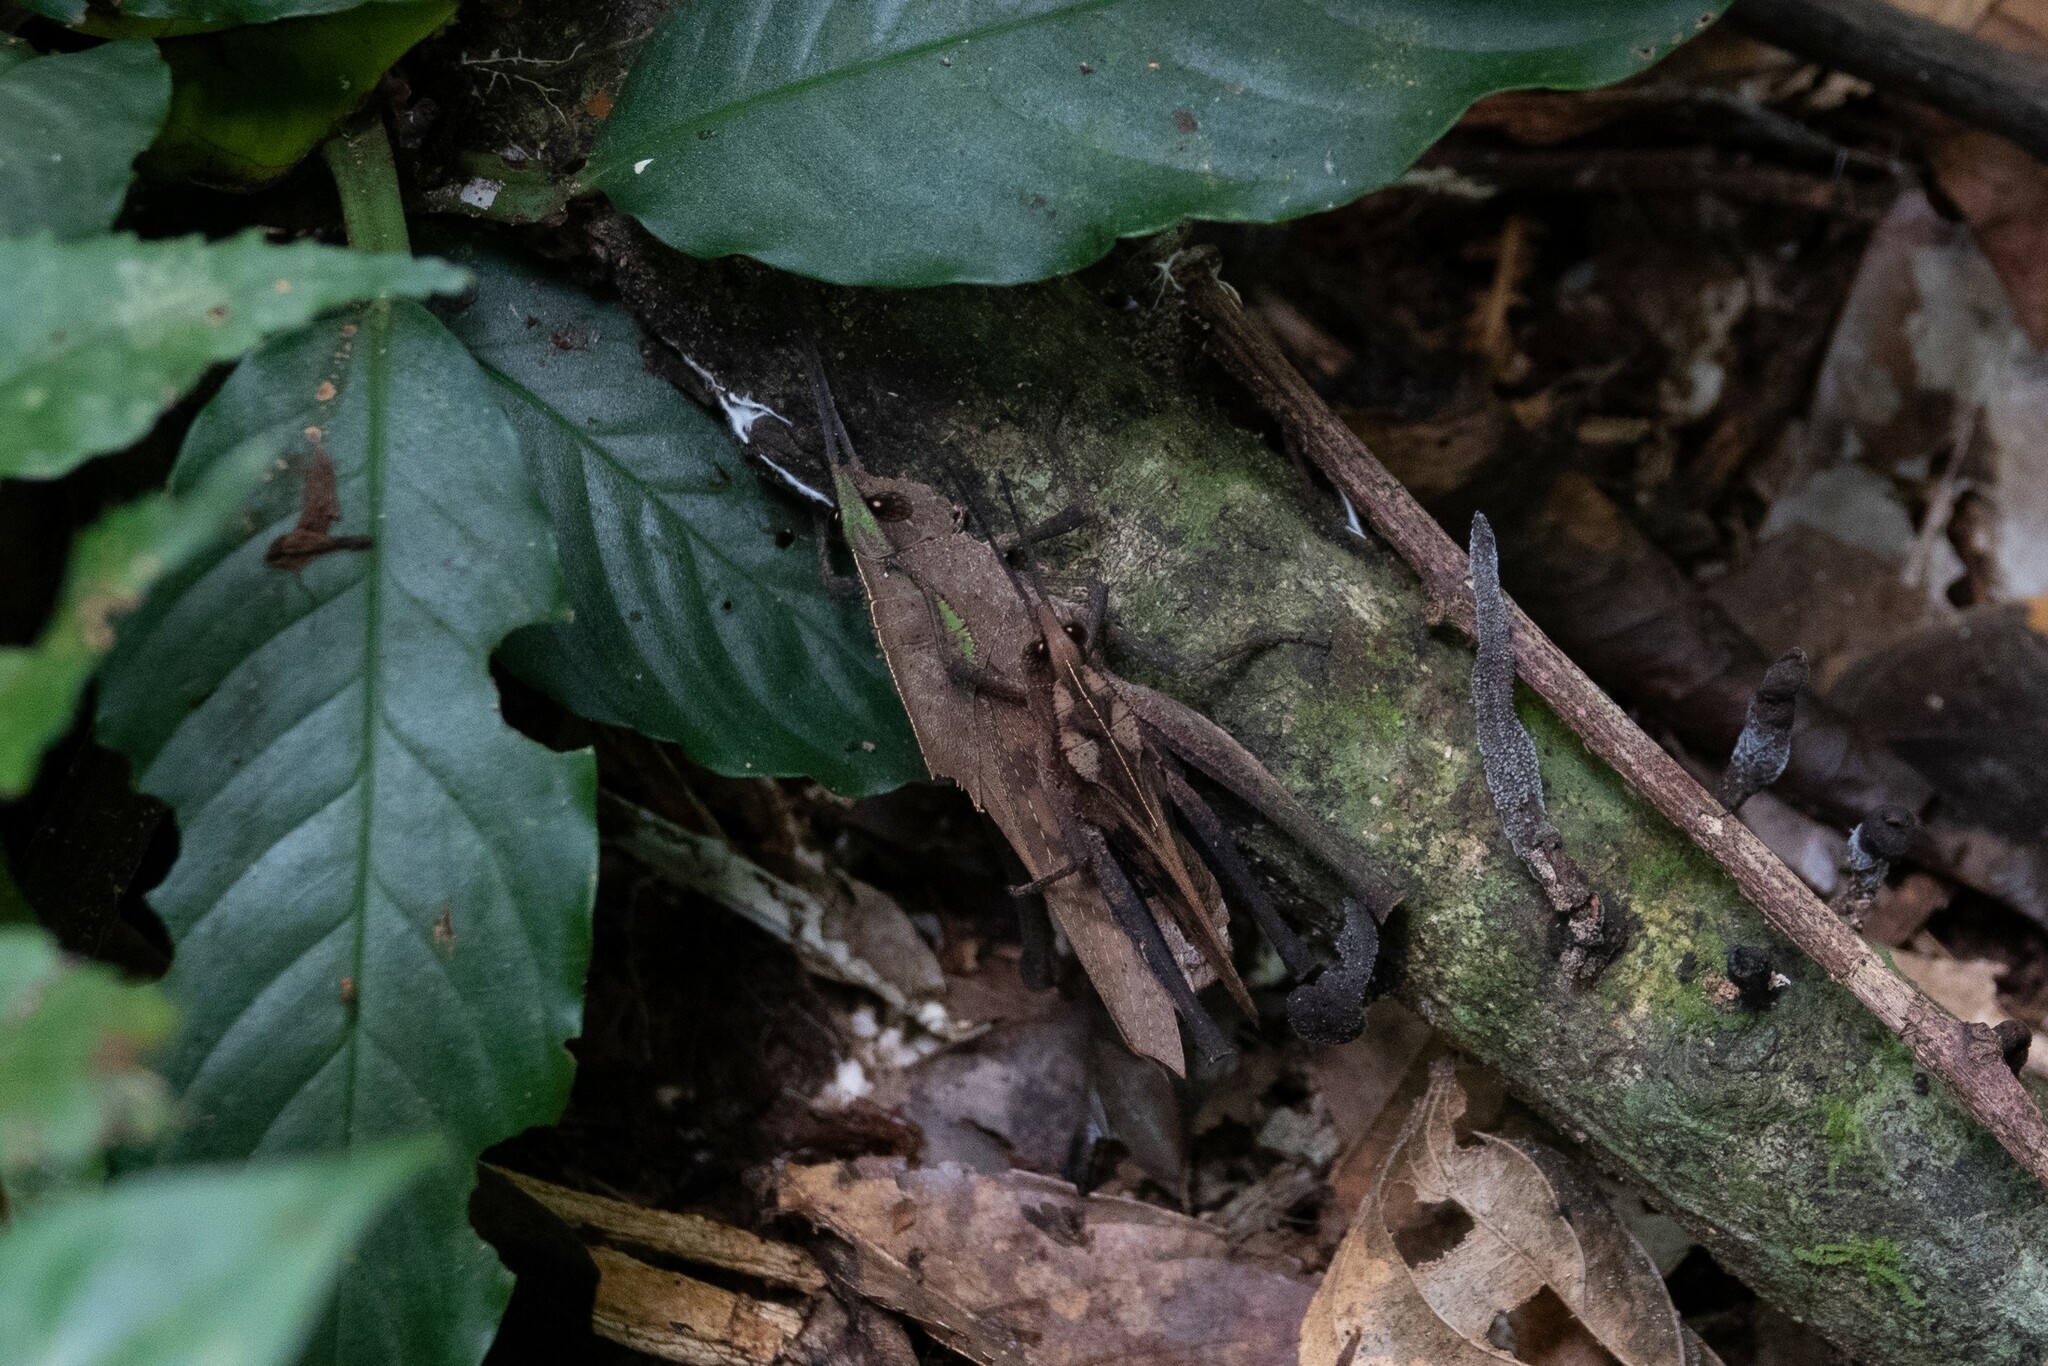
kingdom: Animalia
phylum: Arthropoda
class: Insecta
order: Orthoptera
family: Romaleidae
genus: Colpolopha
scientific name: Colpolopha praemorsa
